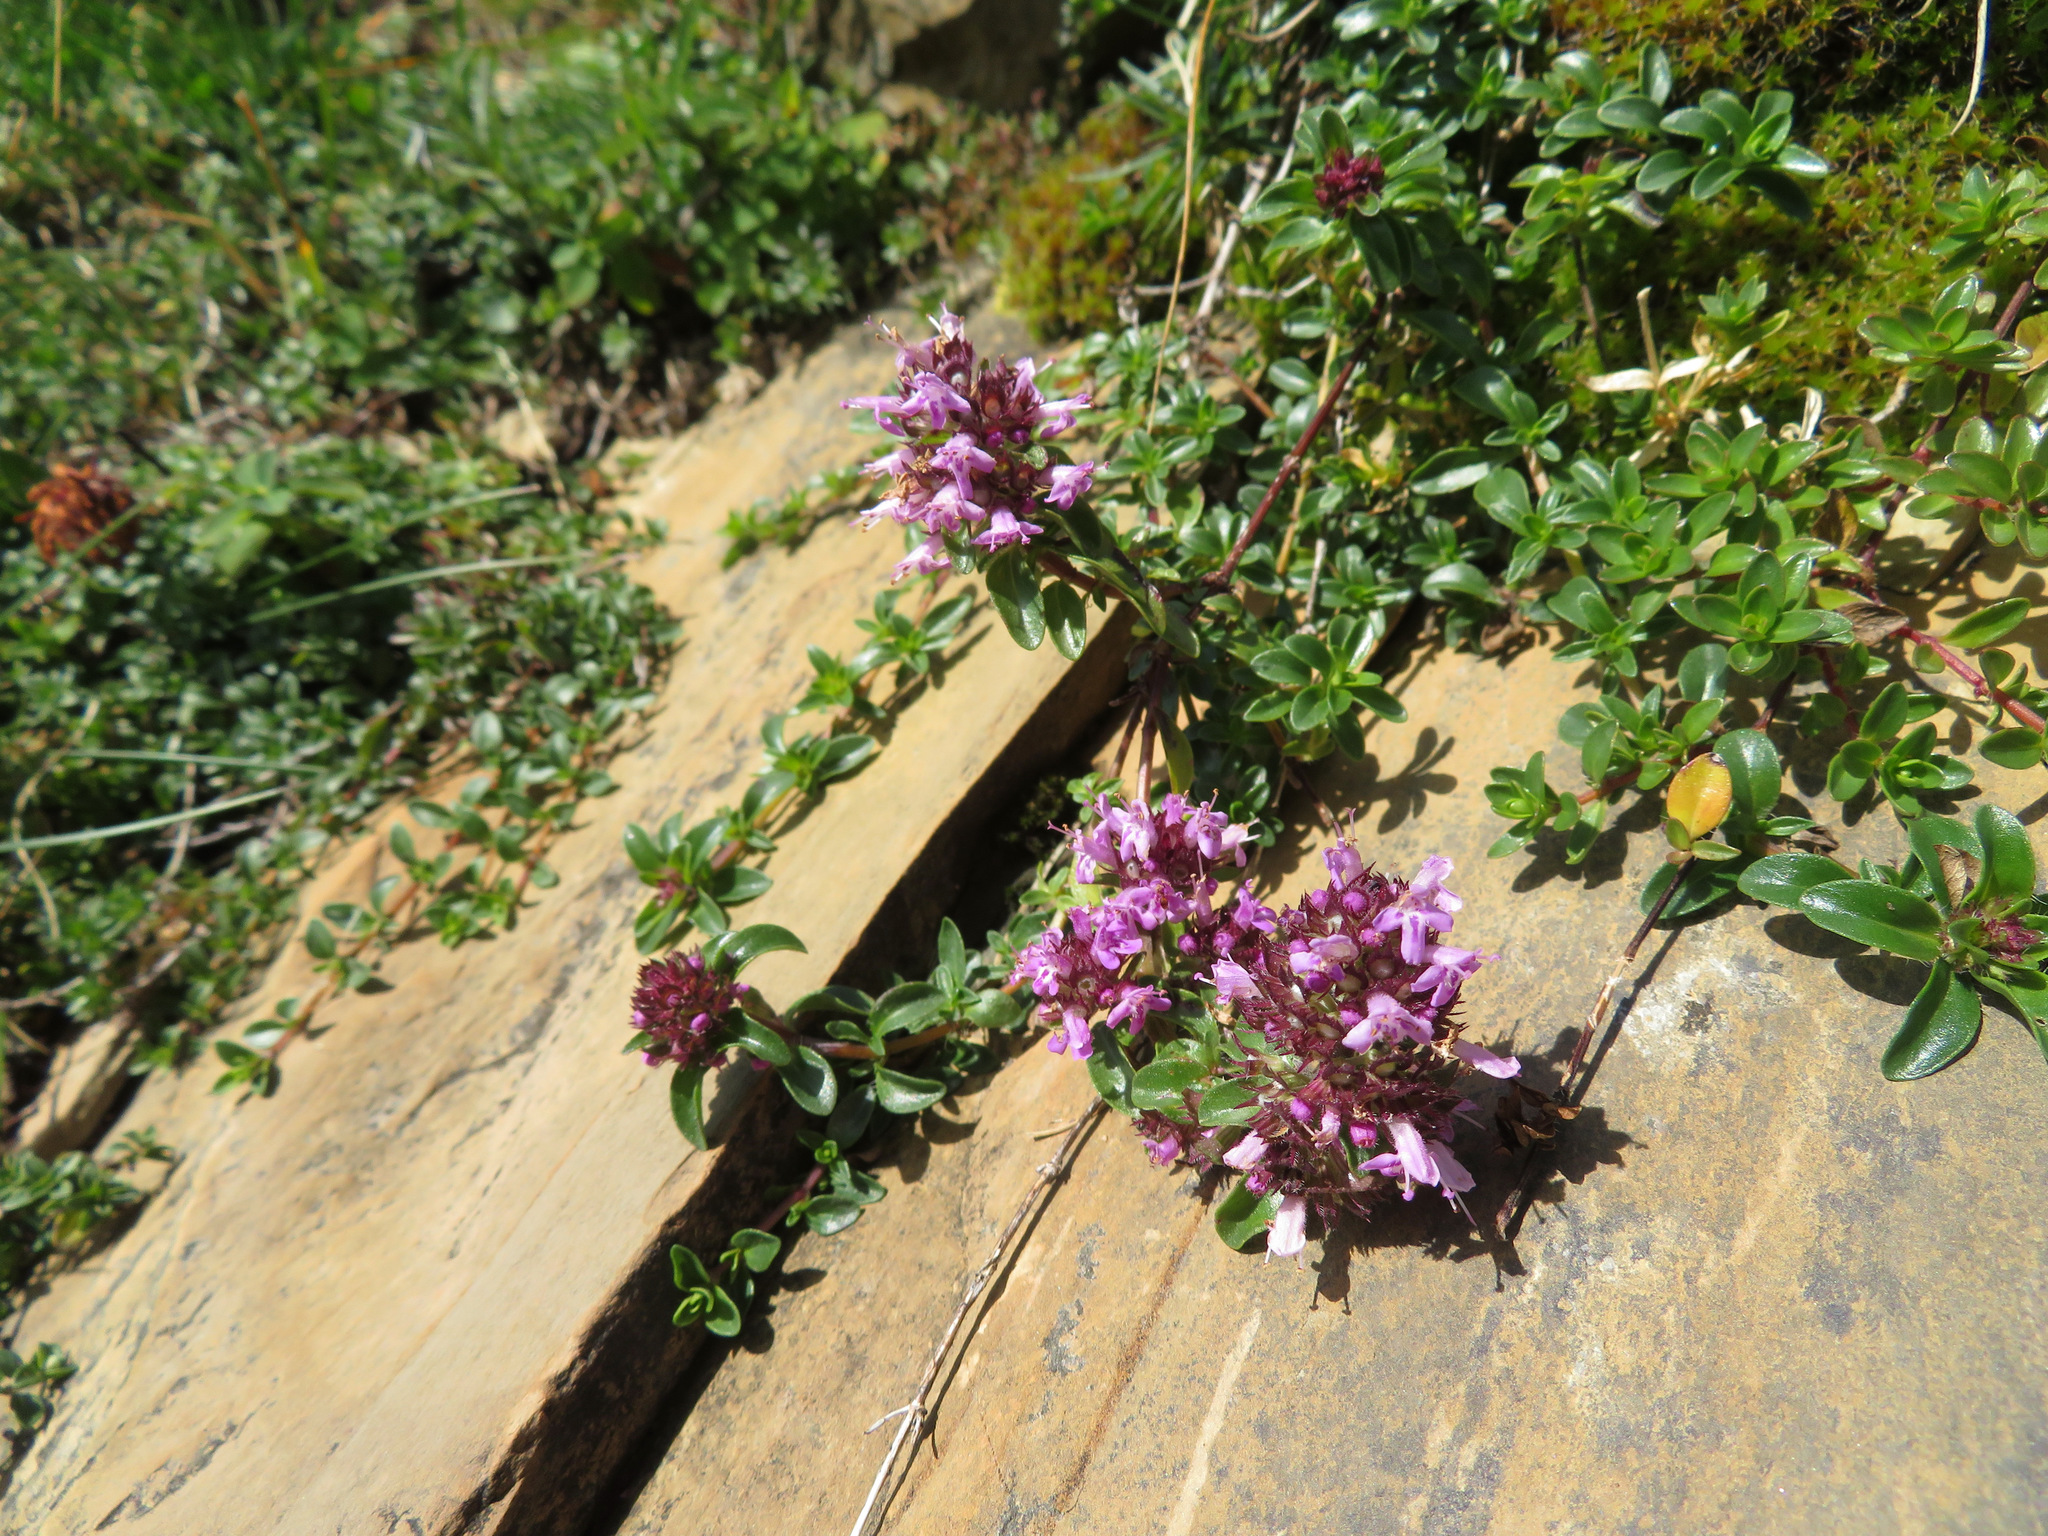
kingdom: Plantae
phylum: Tracheophyta
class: Magnoliopsida
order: Lamiales
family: Lamiaceae
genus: Thymus
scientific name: Thymus praecox
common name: Wild thyme
